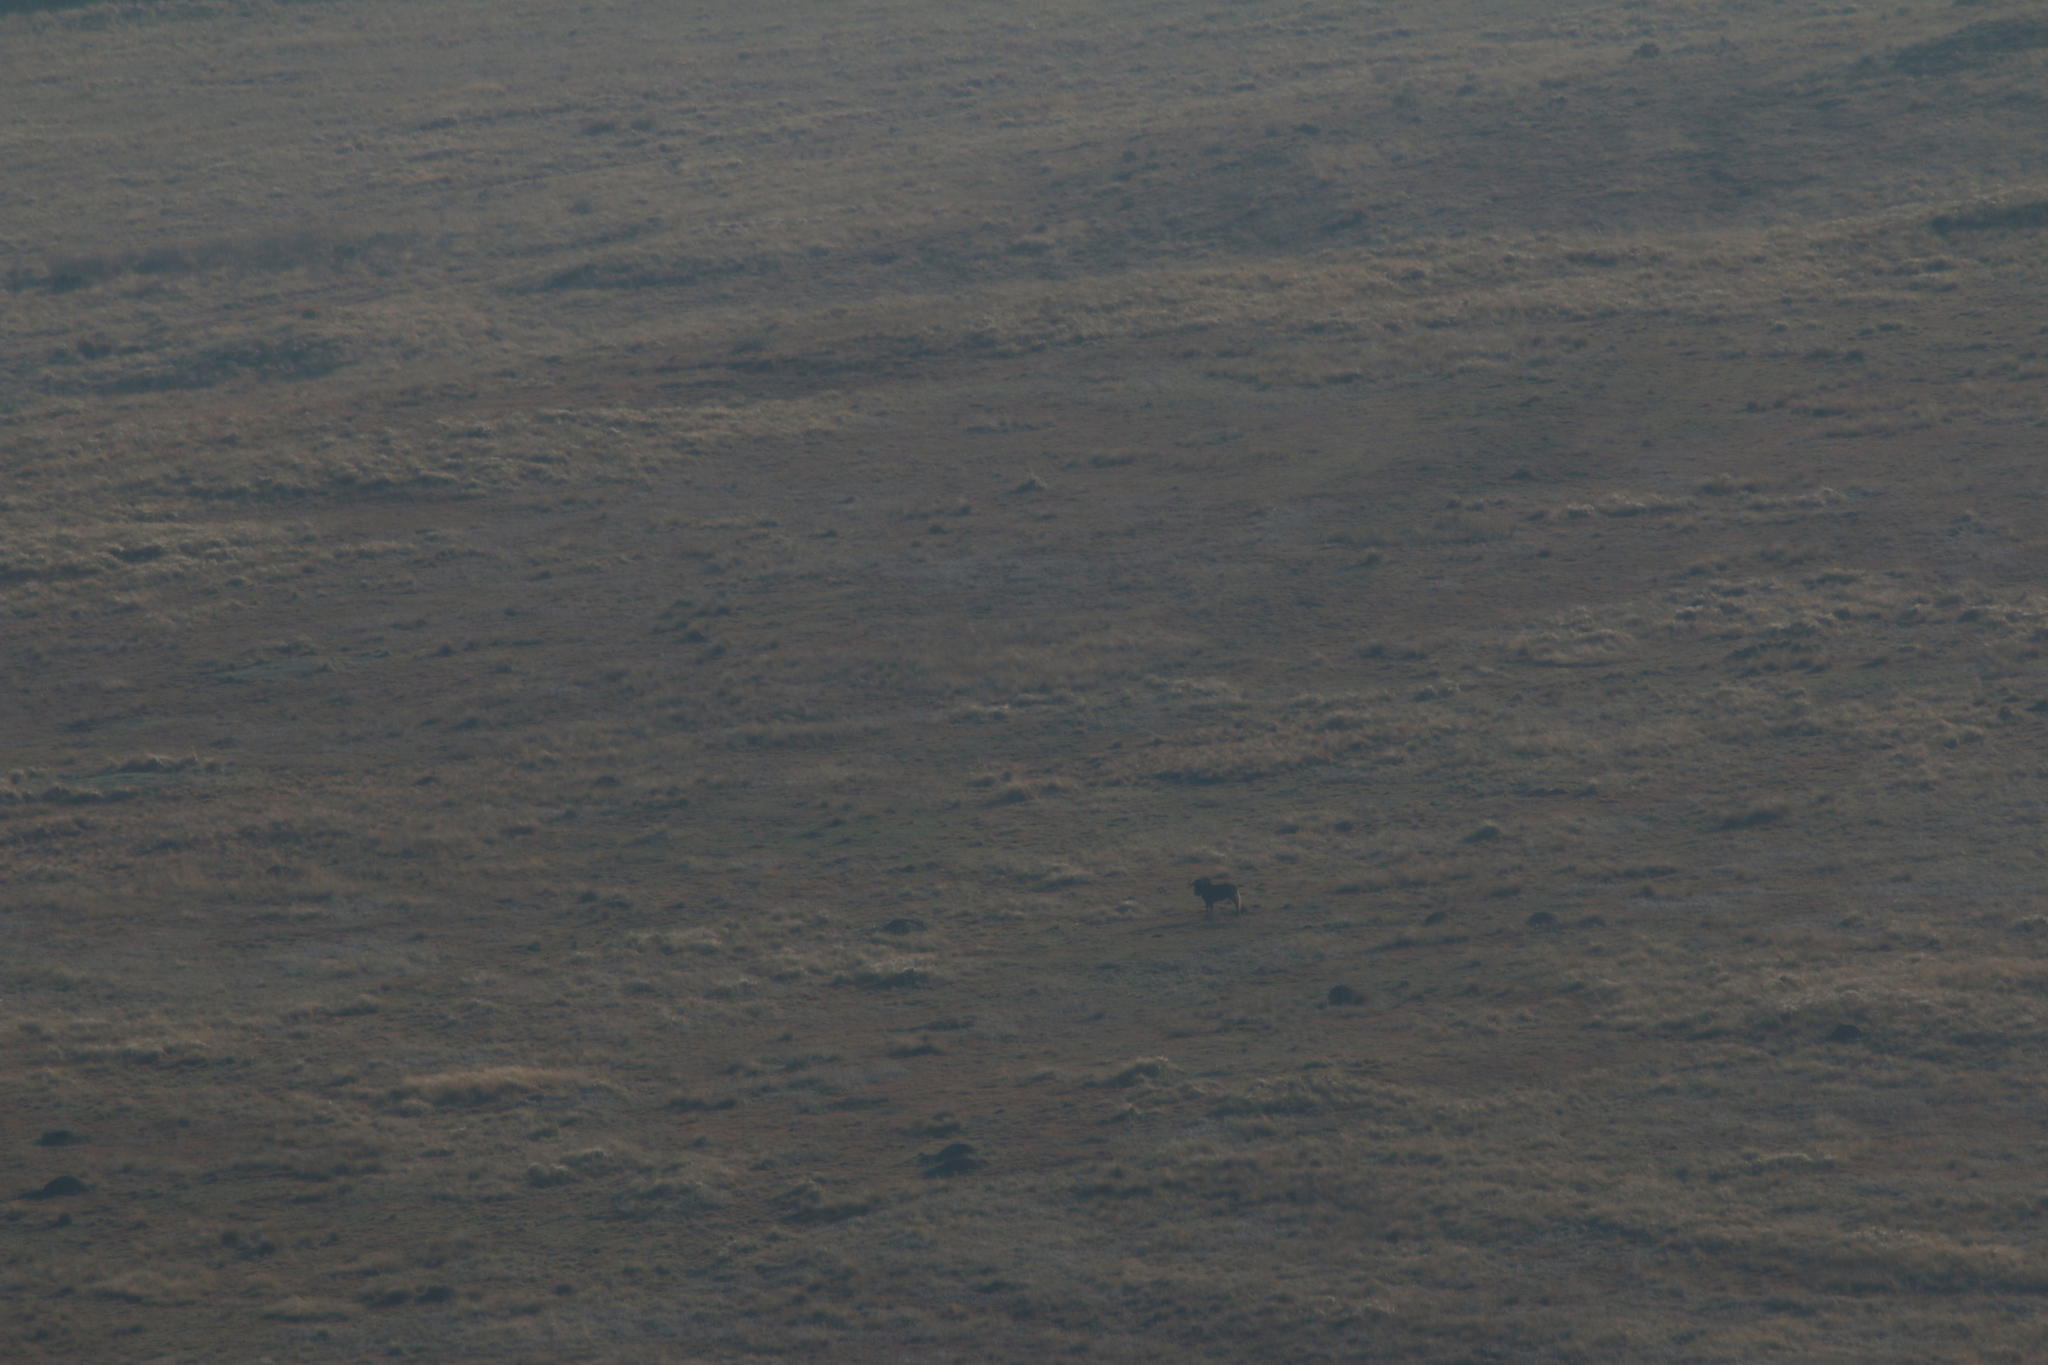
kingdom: Animalia
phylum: Chordata
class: Mammalia
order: Artiodactyla
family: Bovidae
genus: Connochaetes
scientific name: Connochaetes gnou
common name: Black wildebeest
